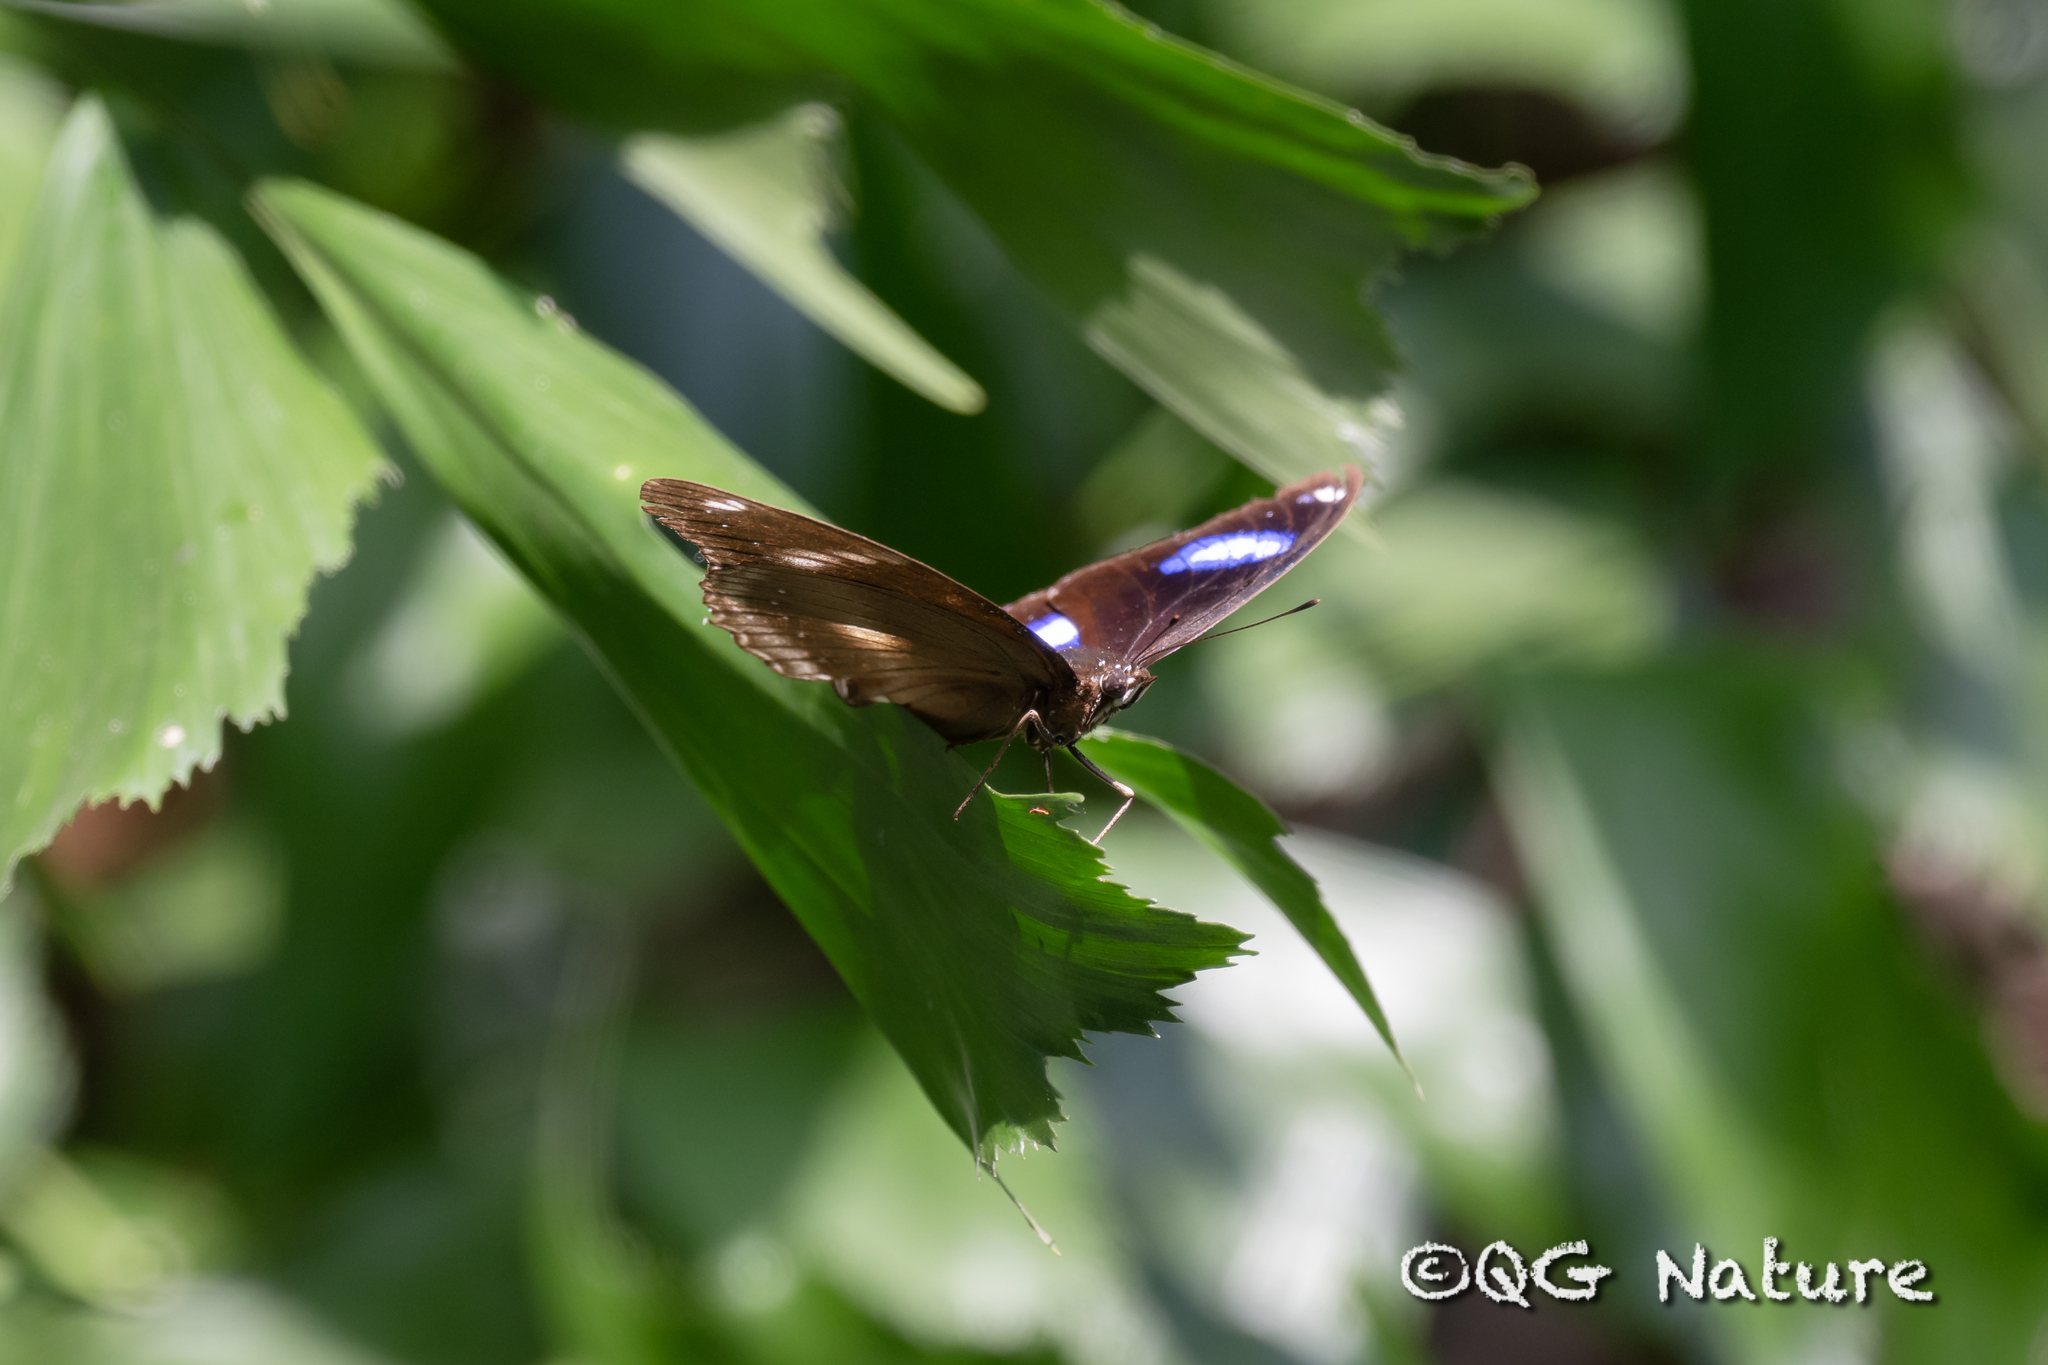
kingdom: Animalia
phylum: Arthropoda
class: Insecta
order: Lepidoptera
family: Nymphalidae
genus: Hypolimnas
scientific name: Hypolimnas bolina
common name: Great eggfly
